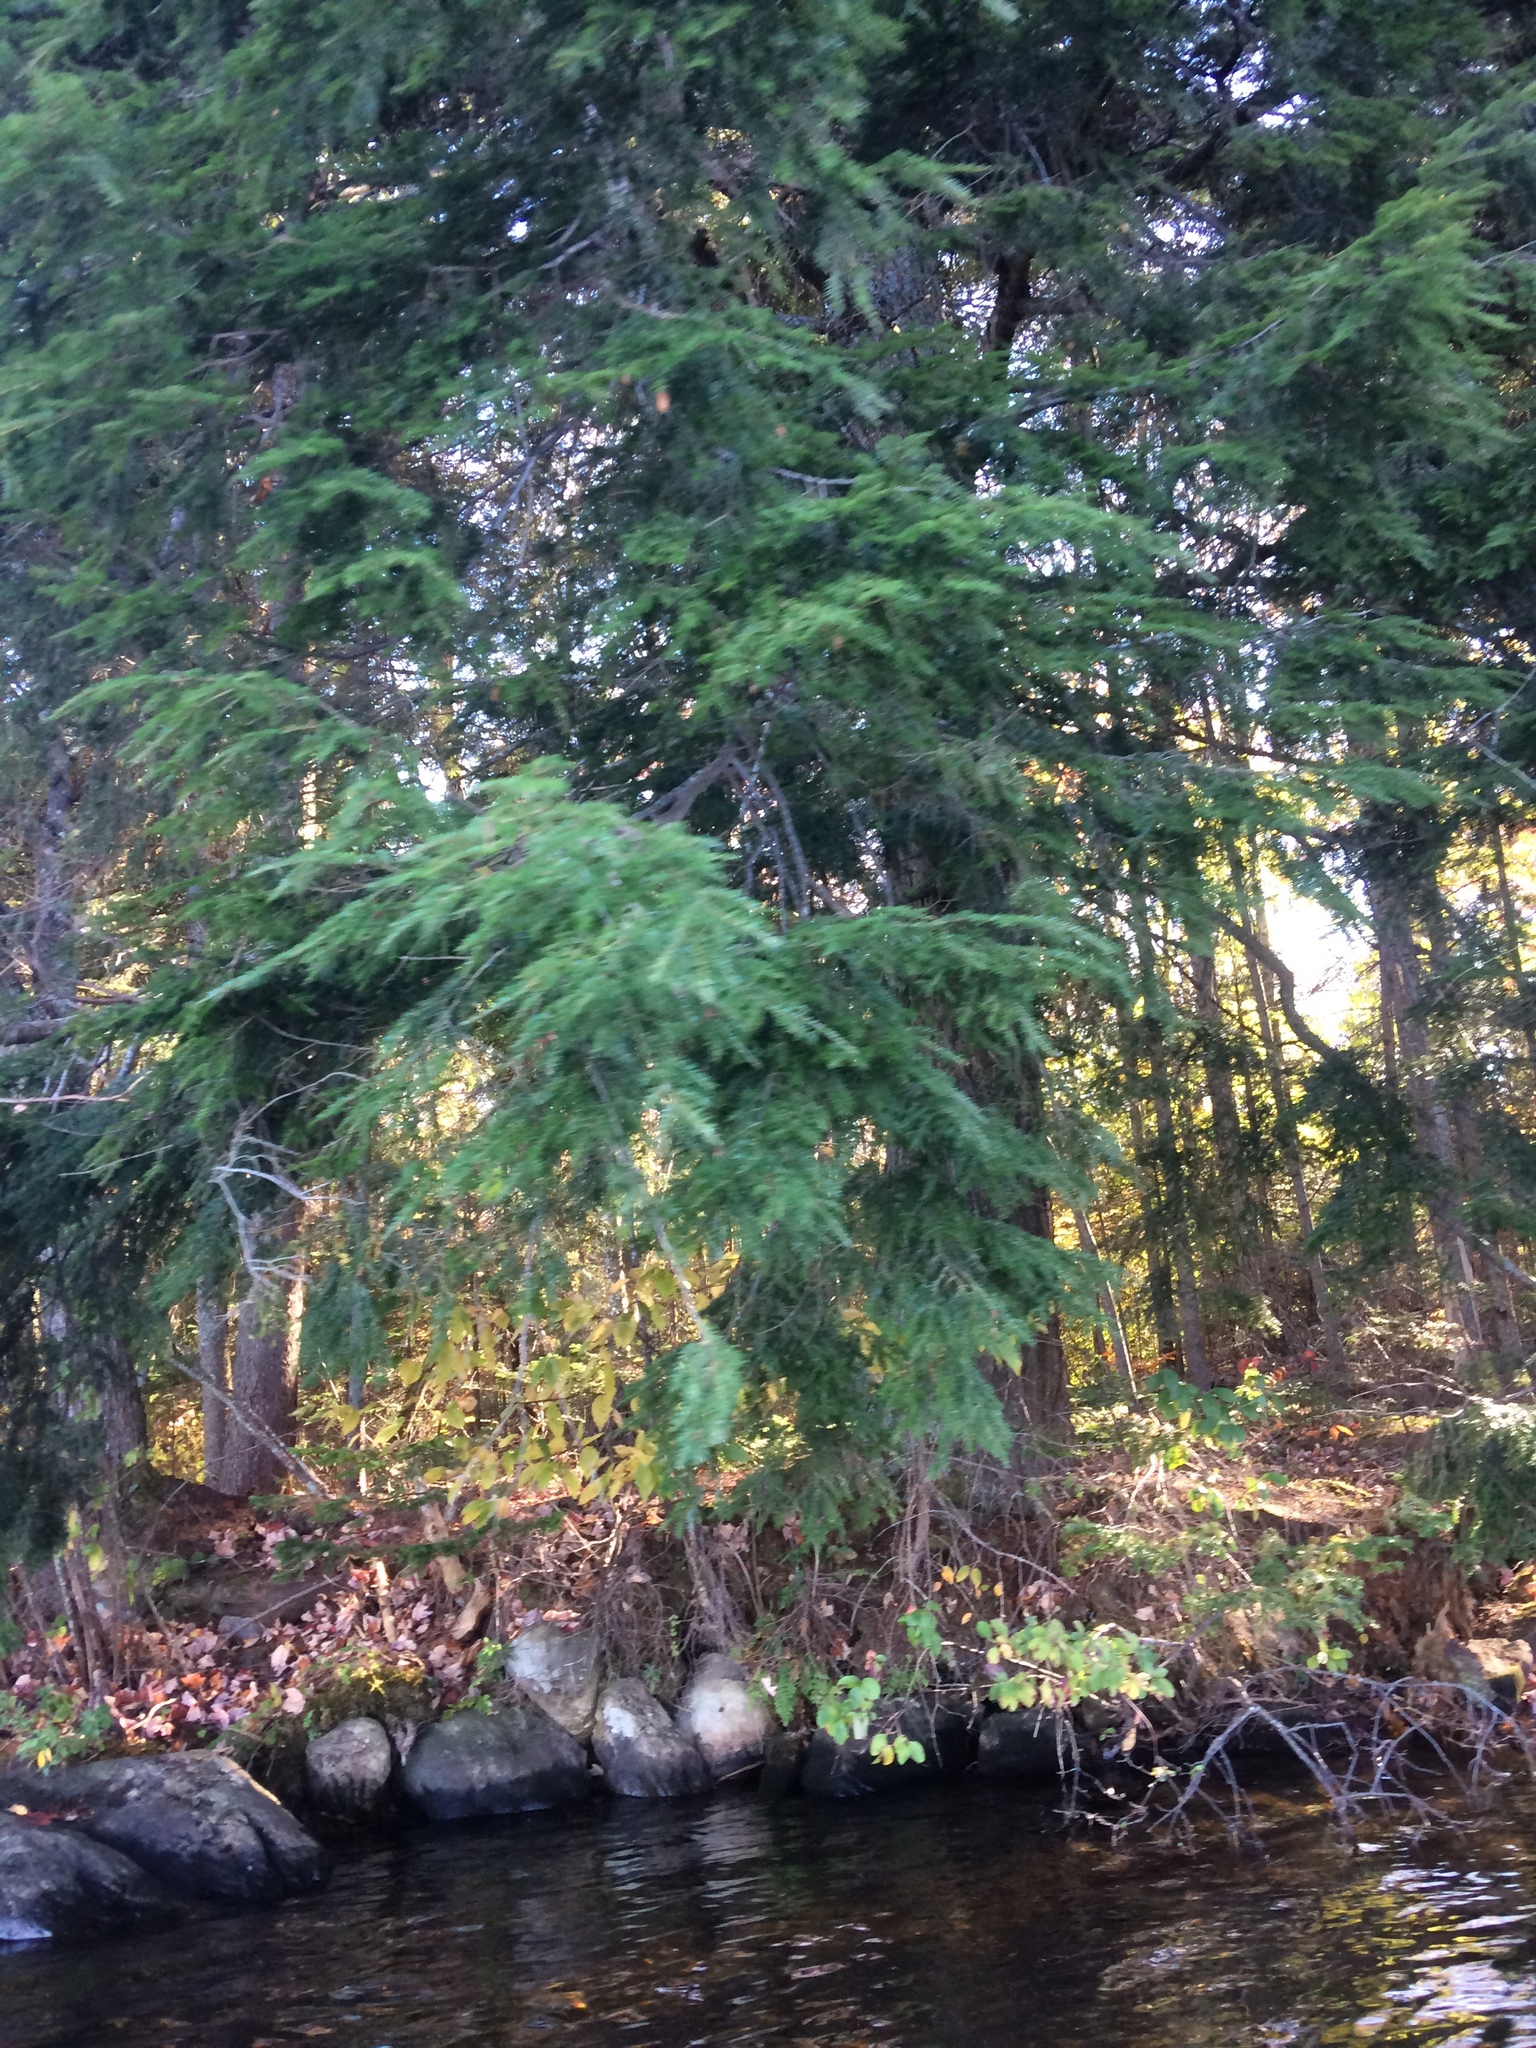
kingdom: Plantae
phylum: Tracheophyta
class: Pinopsida
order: Pinales
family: Pinaceae
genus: Tsuga
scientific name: Tsuga canadensis
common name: Eastern hemlock
